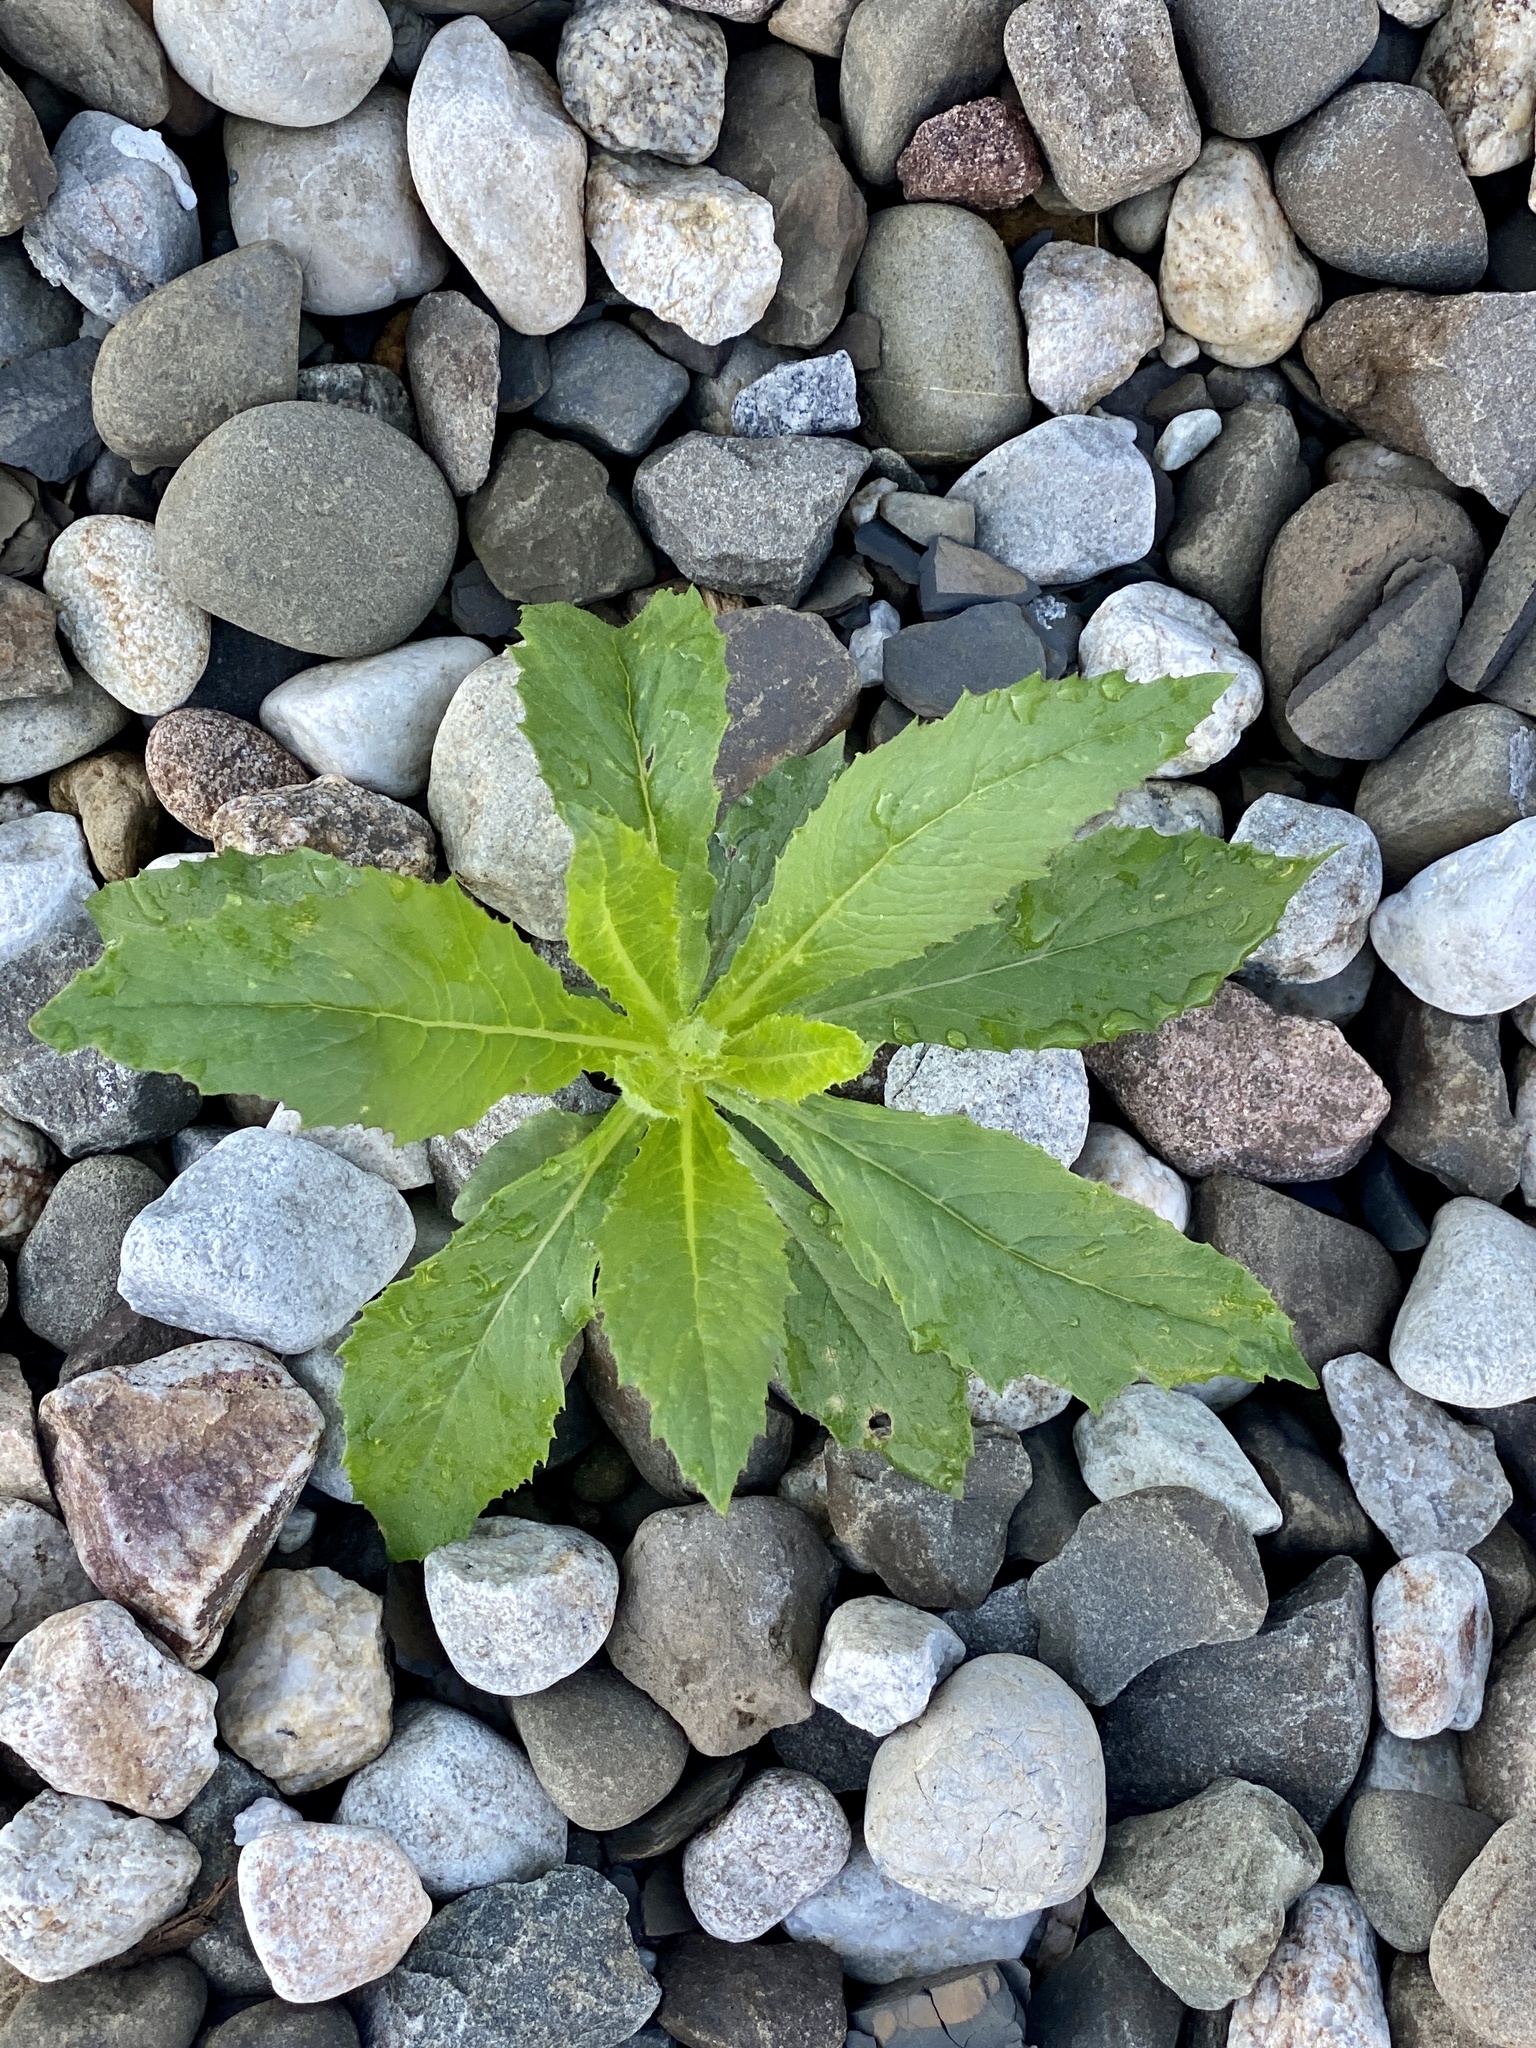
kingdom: Plantae
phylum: Tracheophyta
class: Magnoliopsida
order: Asterales
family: Asteraceae
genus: Erechtites
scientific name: Erechtites hieraciifolius
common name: American burnweed
